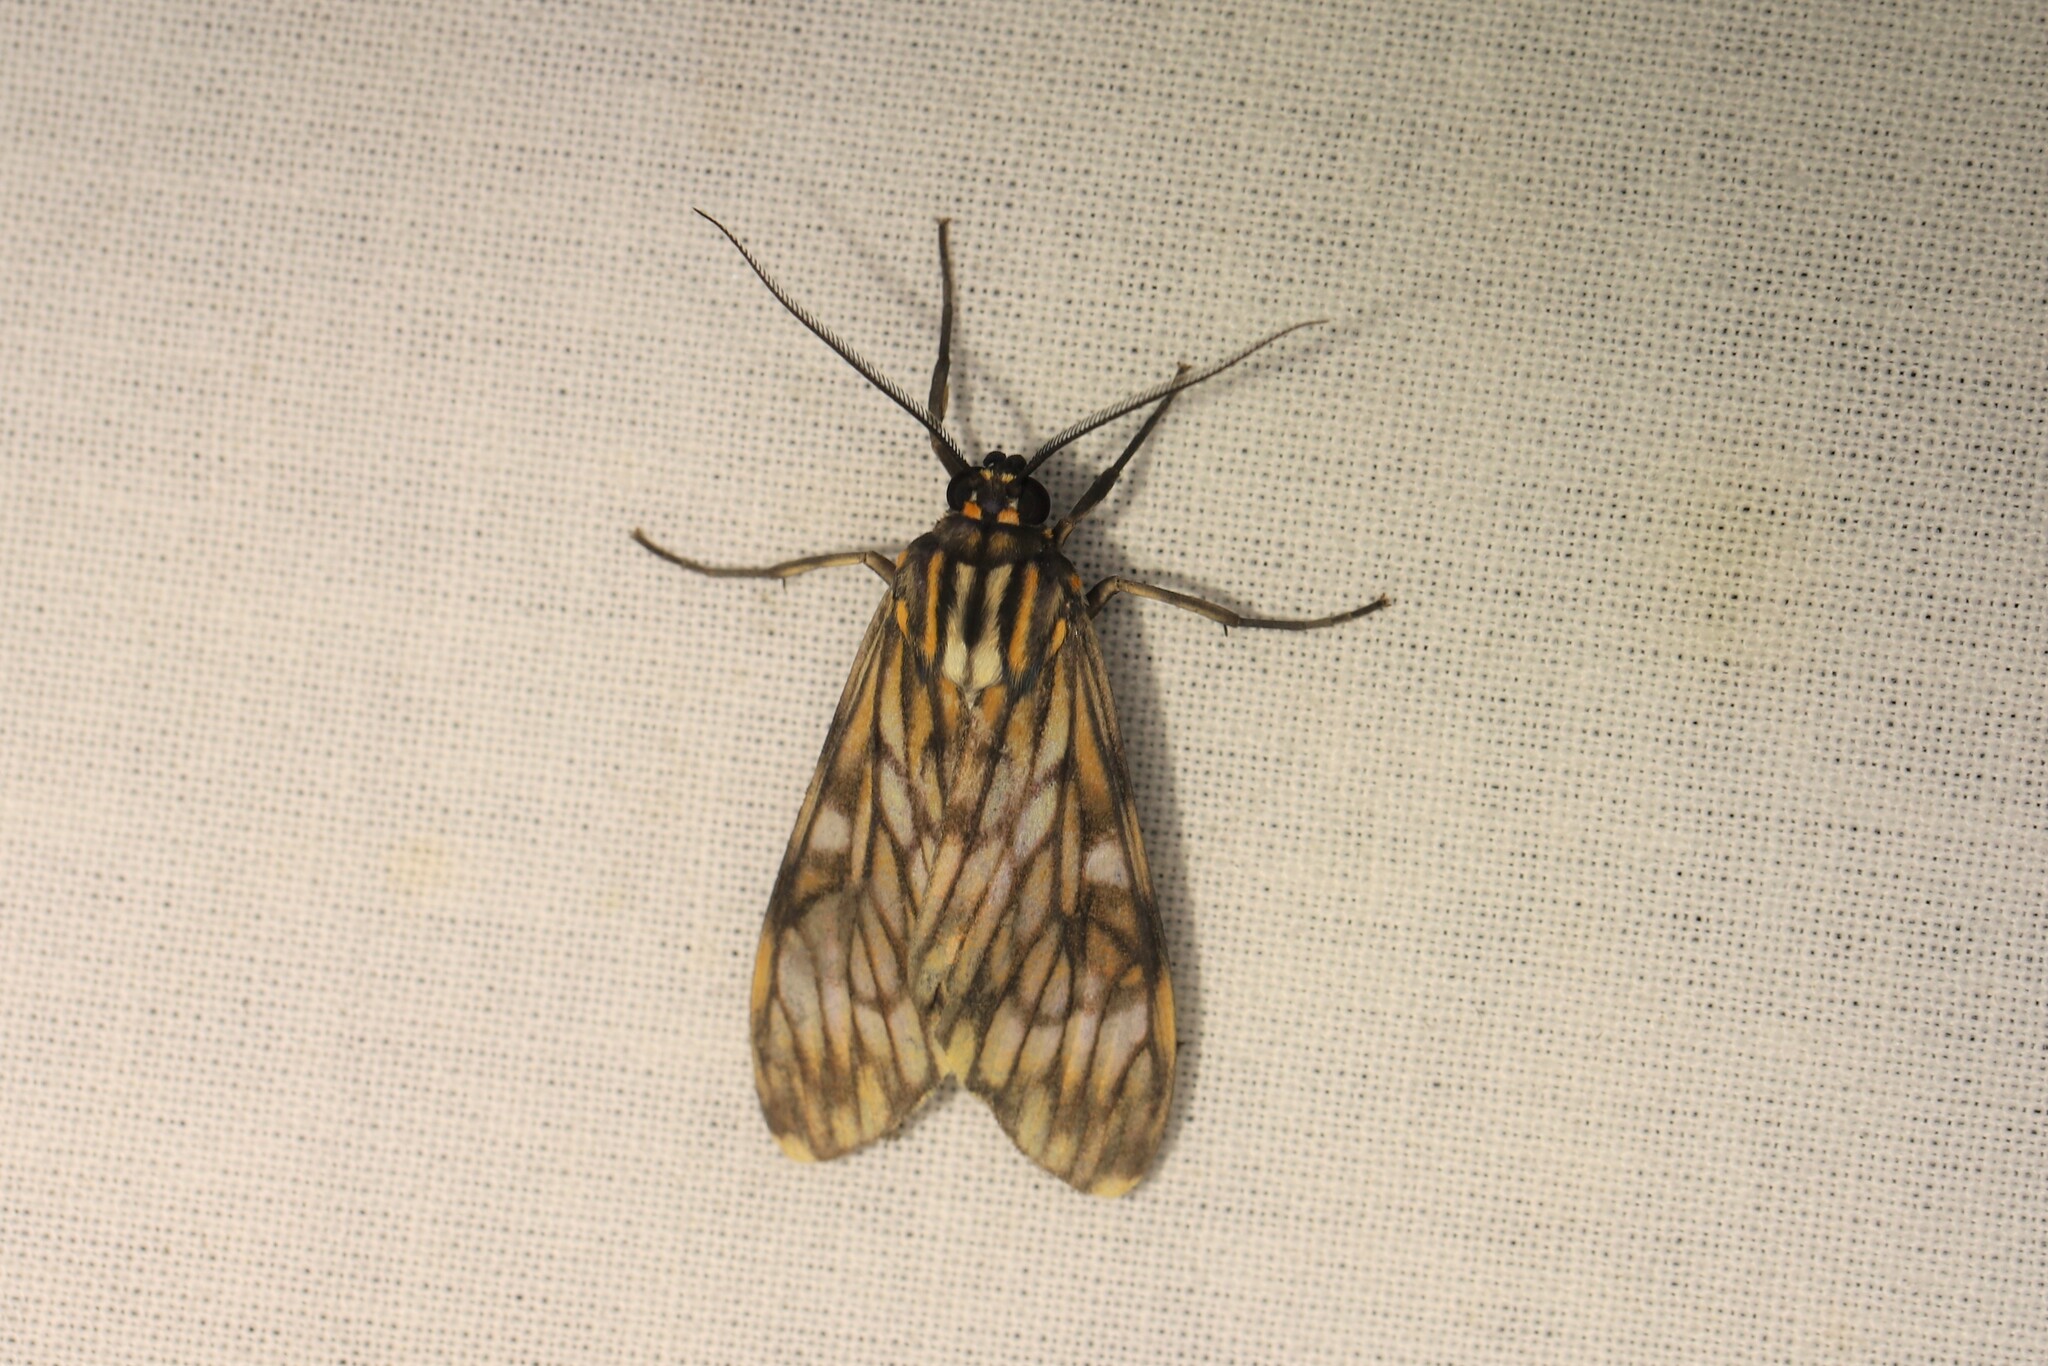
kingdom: Animalia
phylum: Arthropoda
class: Insecta
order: Lepidoptera
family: Erebidae
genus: Theages
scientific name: Theages flavicaput
